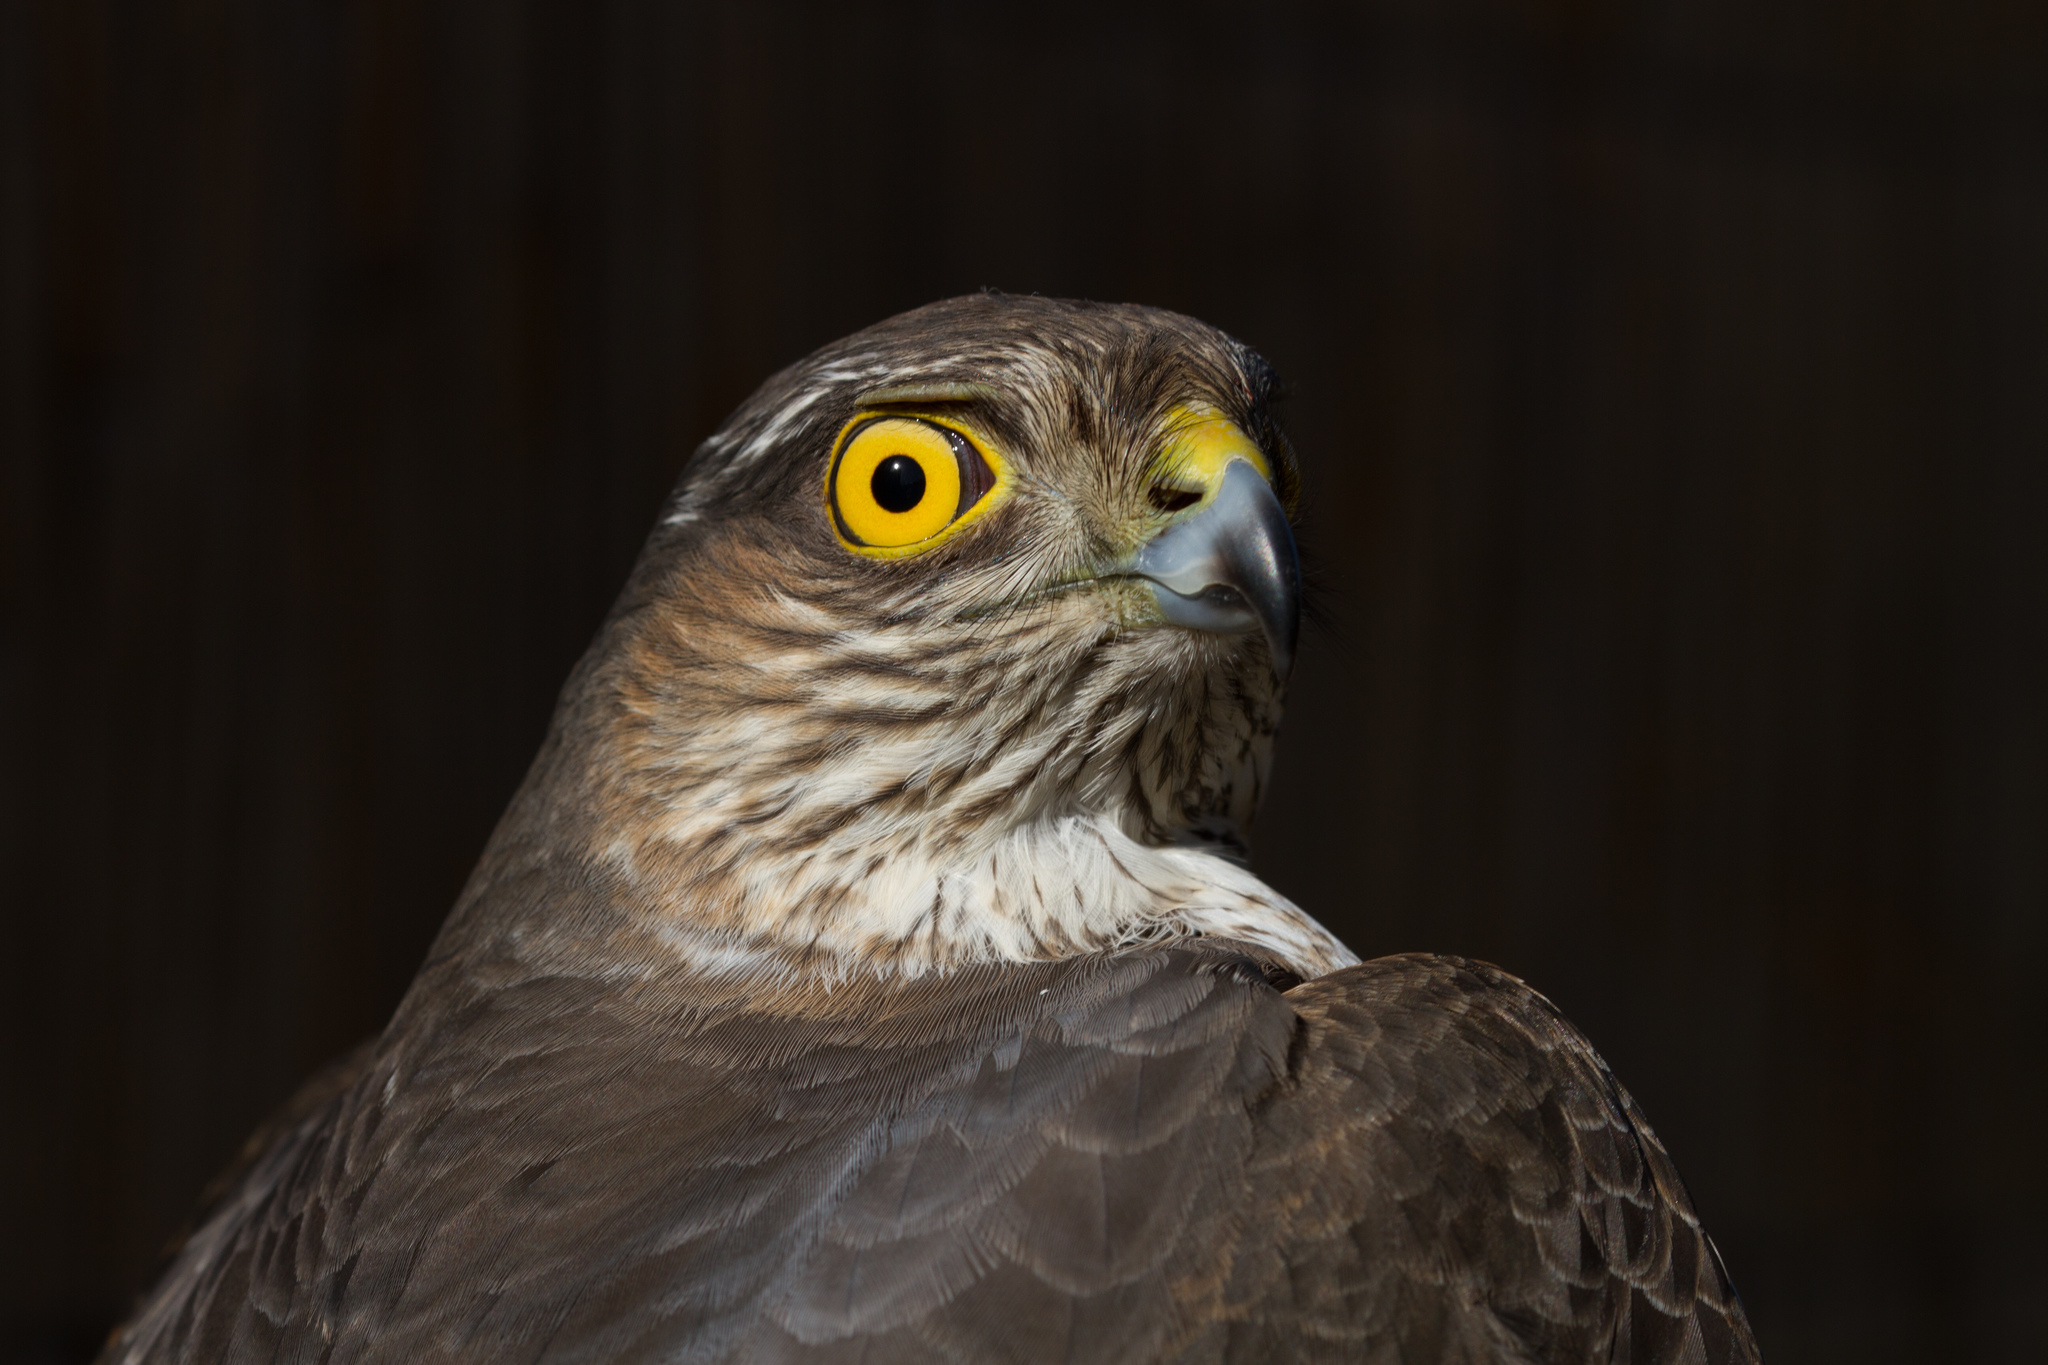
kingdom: Animalia
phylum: Chordata
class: Aves
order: Accipitriformes
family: Accipitridae
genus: Accipiter
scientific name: Accipiter nisus
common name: Eurasian sparrowhawk
